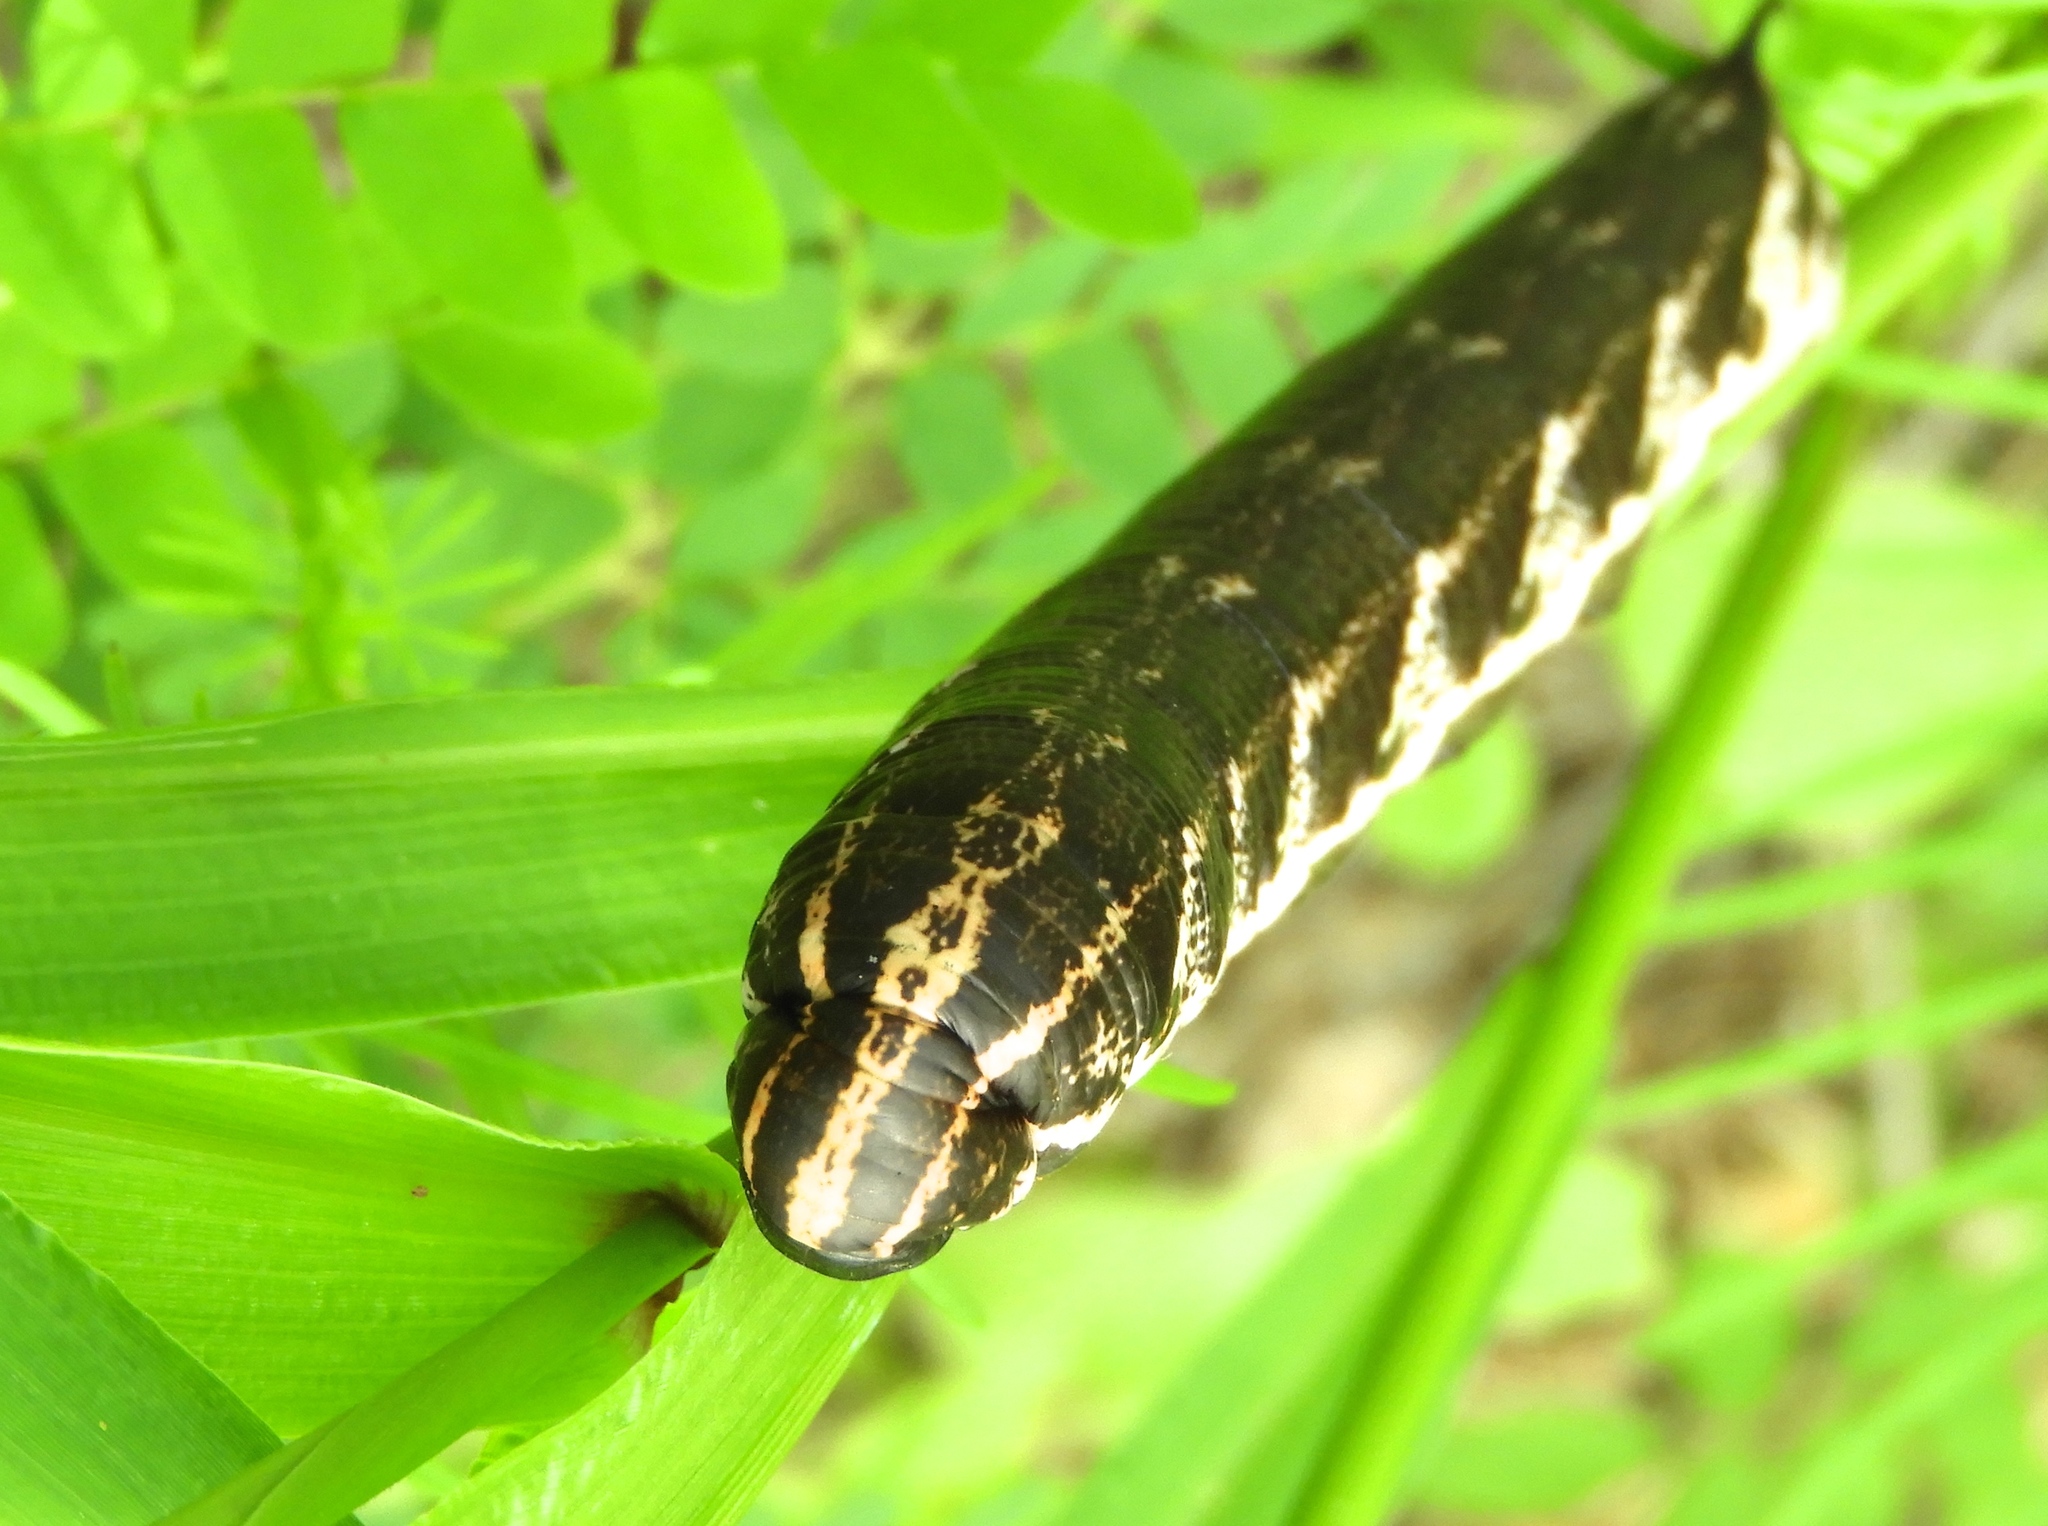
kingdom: Animalia
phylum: Arthropoda
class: Insecta
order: Lepidoptera
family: Sphingidae
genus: Agrius
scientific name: Agrius cingulata
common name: Pink-spotted hawkmoth
